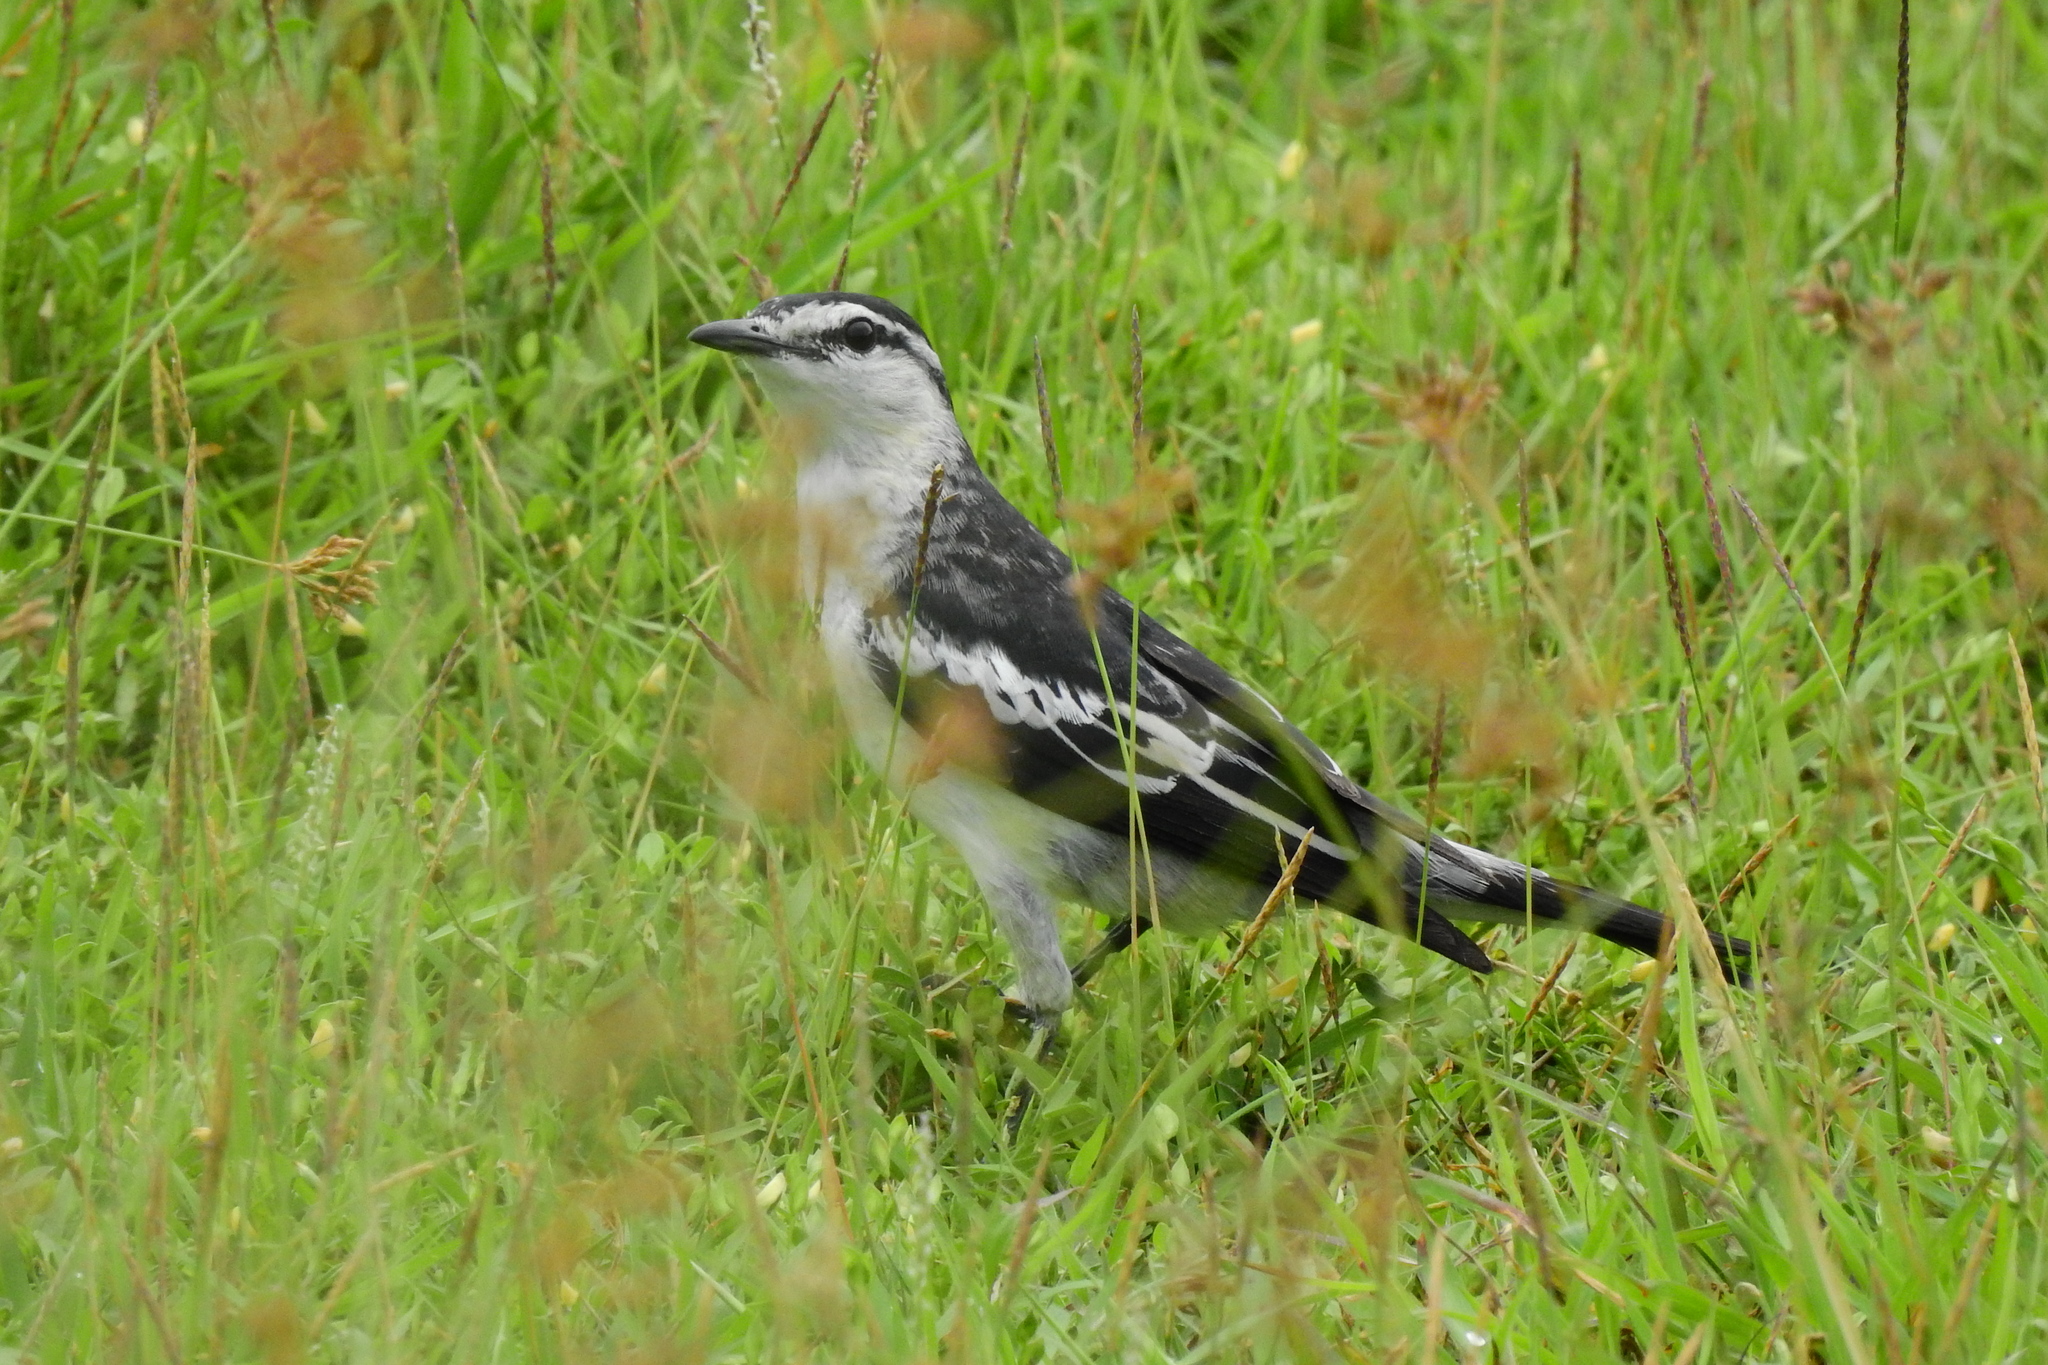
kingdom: Animalia
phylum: Chordata
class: Aves
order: Passeriformes
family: Campephagidae
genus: Lalage
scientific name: Lalage sueurii
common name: White-shouldered triller
